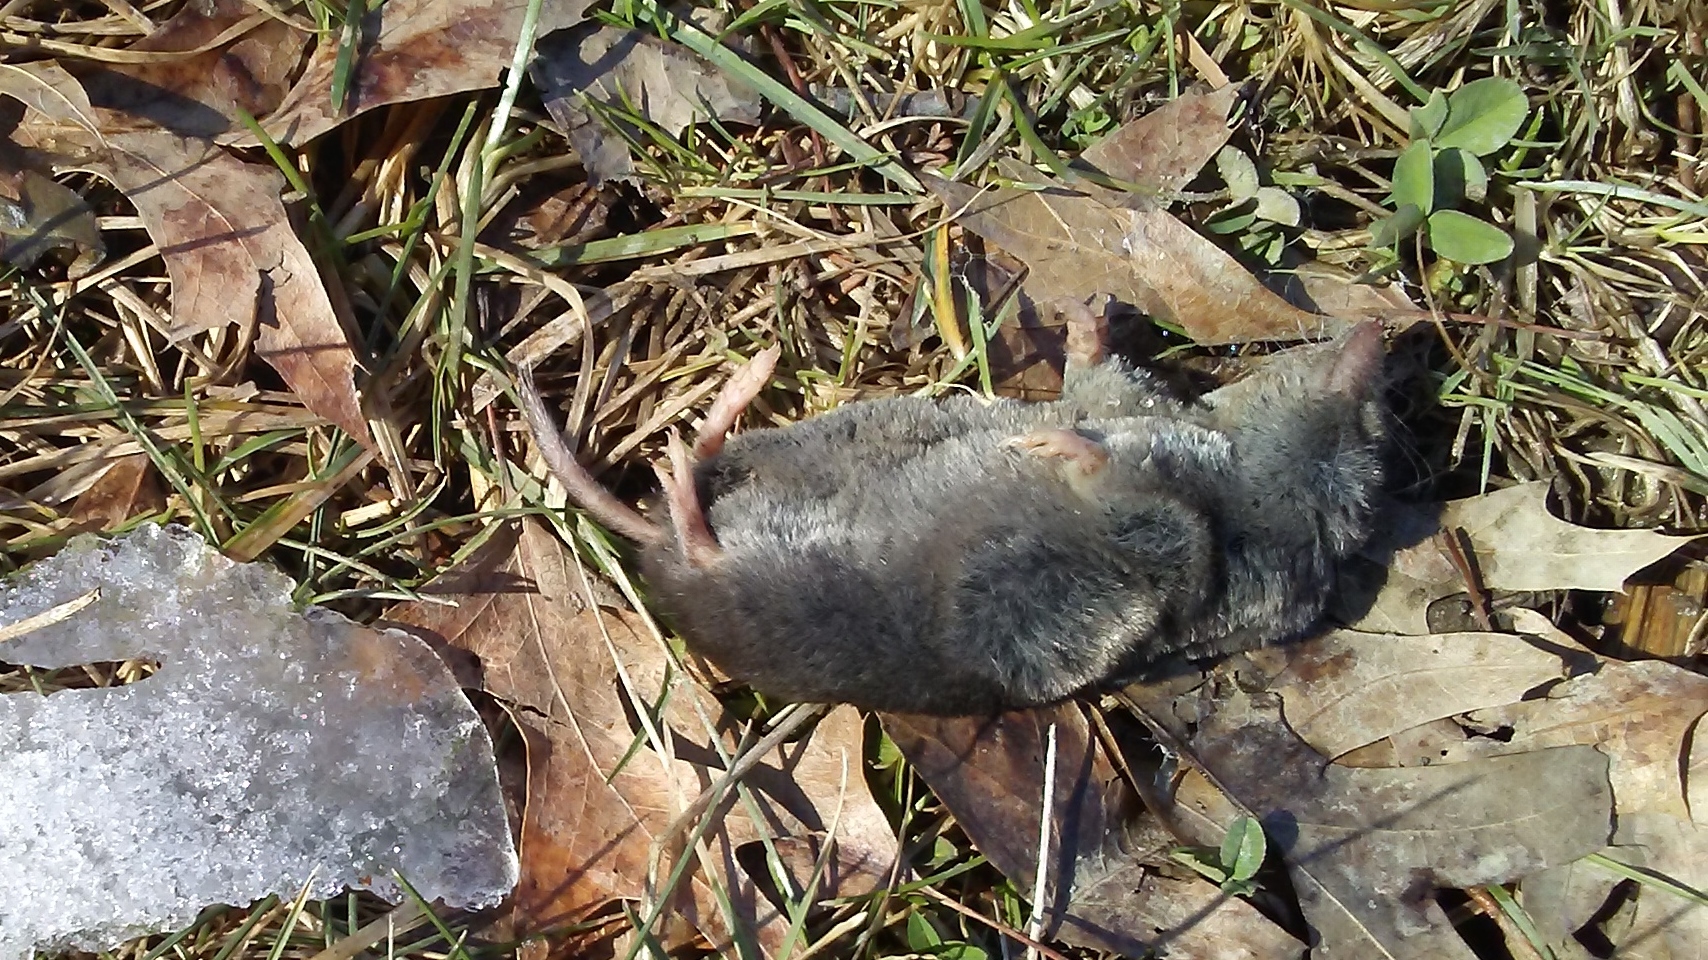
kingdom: Animalia
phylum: Chordata
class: Mammalia
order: Soricomorpha
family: Soricidae
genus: Blarina
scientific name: Blarina brevicauda
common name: Northern short-tailed shrew
